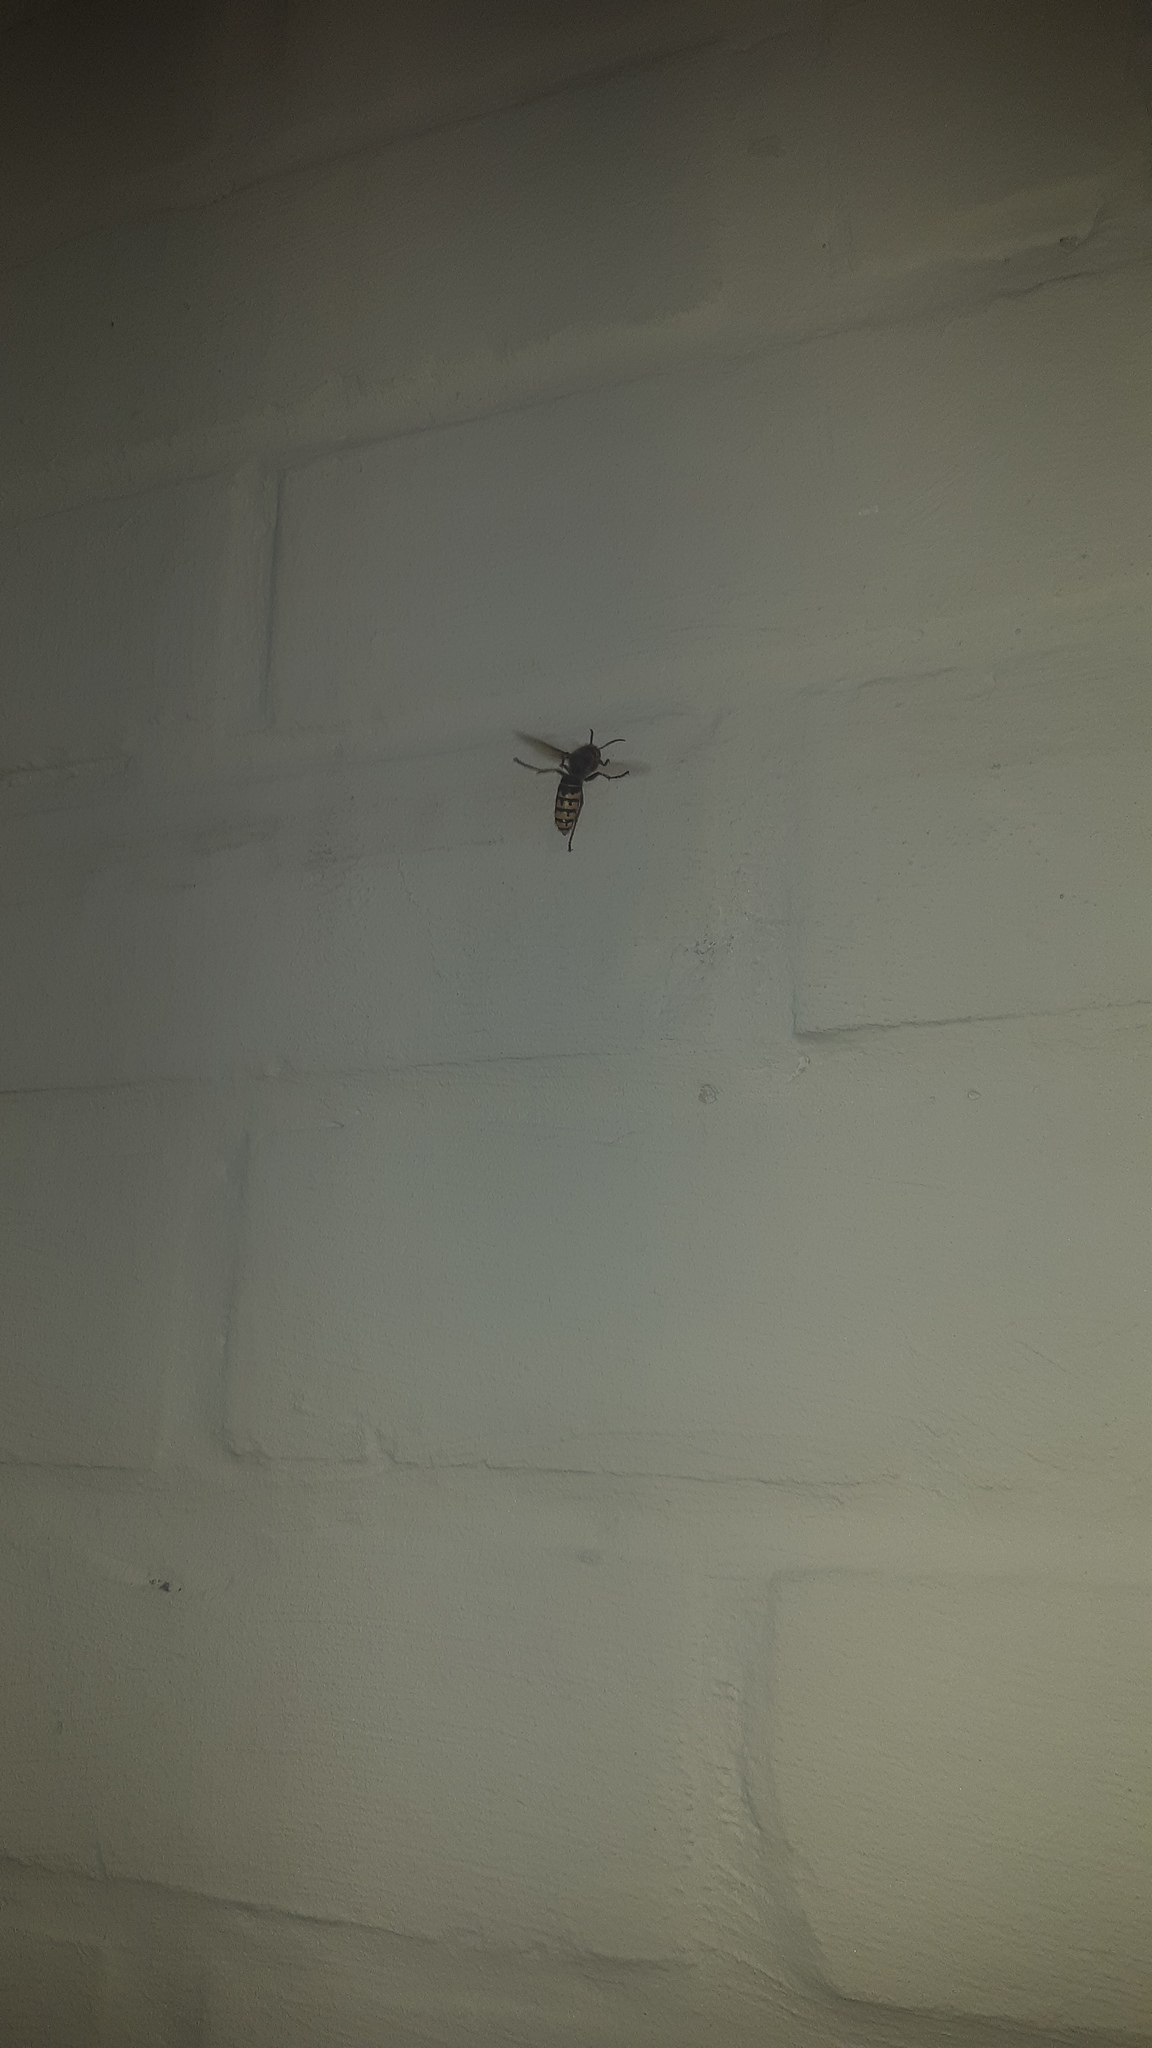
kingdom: Animalia
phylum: Arthropoda
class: Insecta
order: Hymenoptera
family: Vespidae
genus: Vespa
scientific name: Vespa crabro
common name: Hornet
